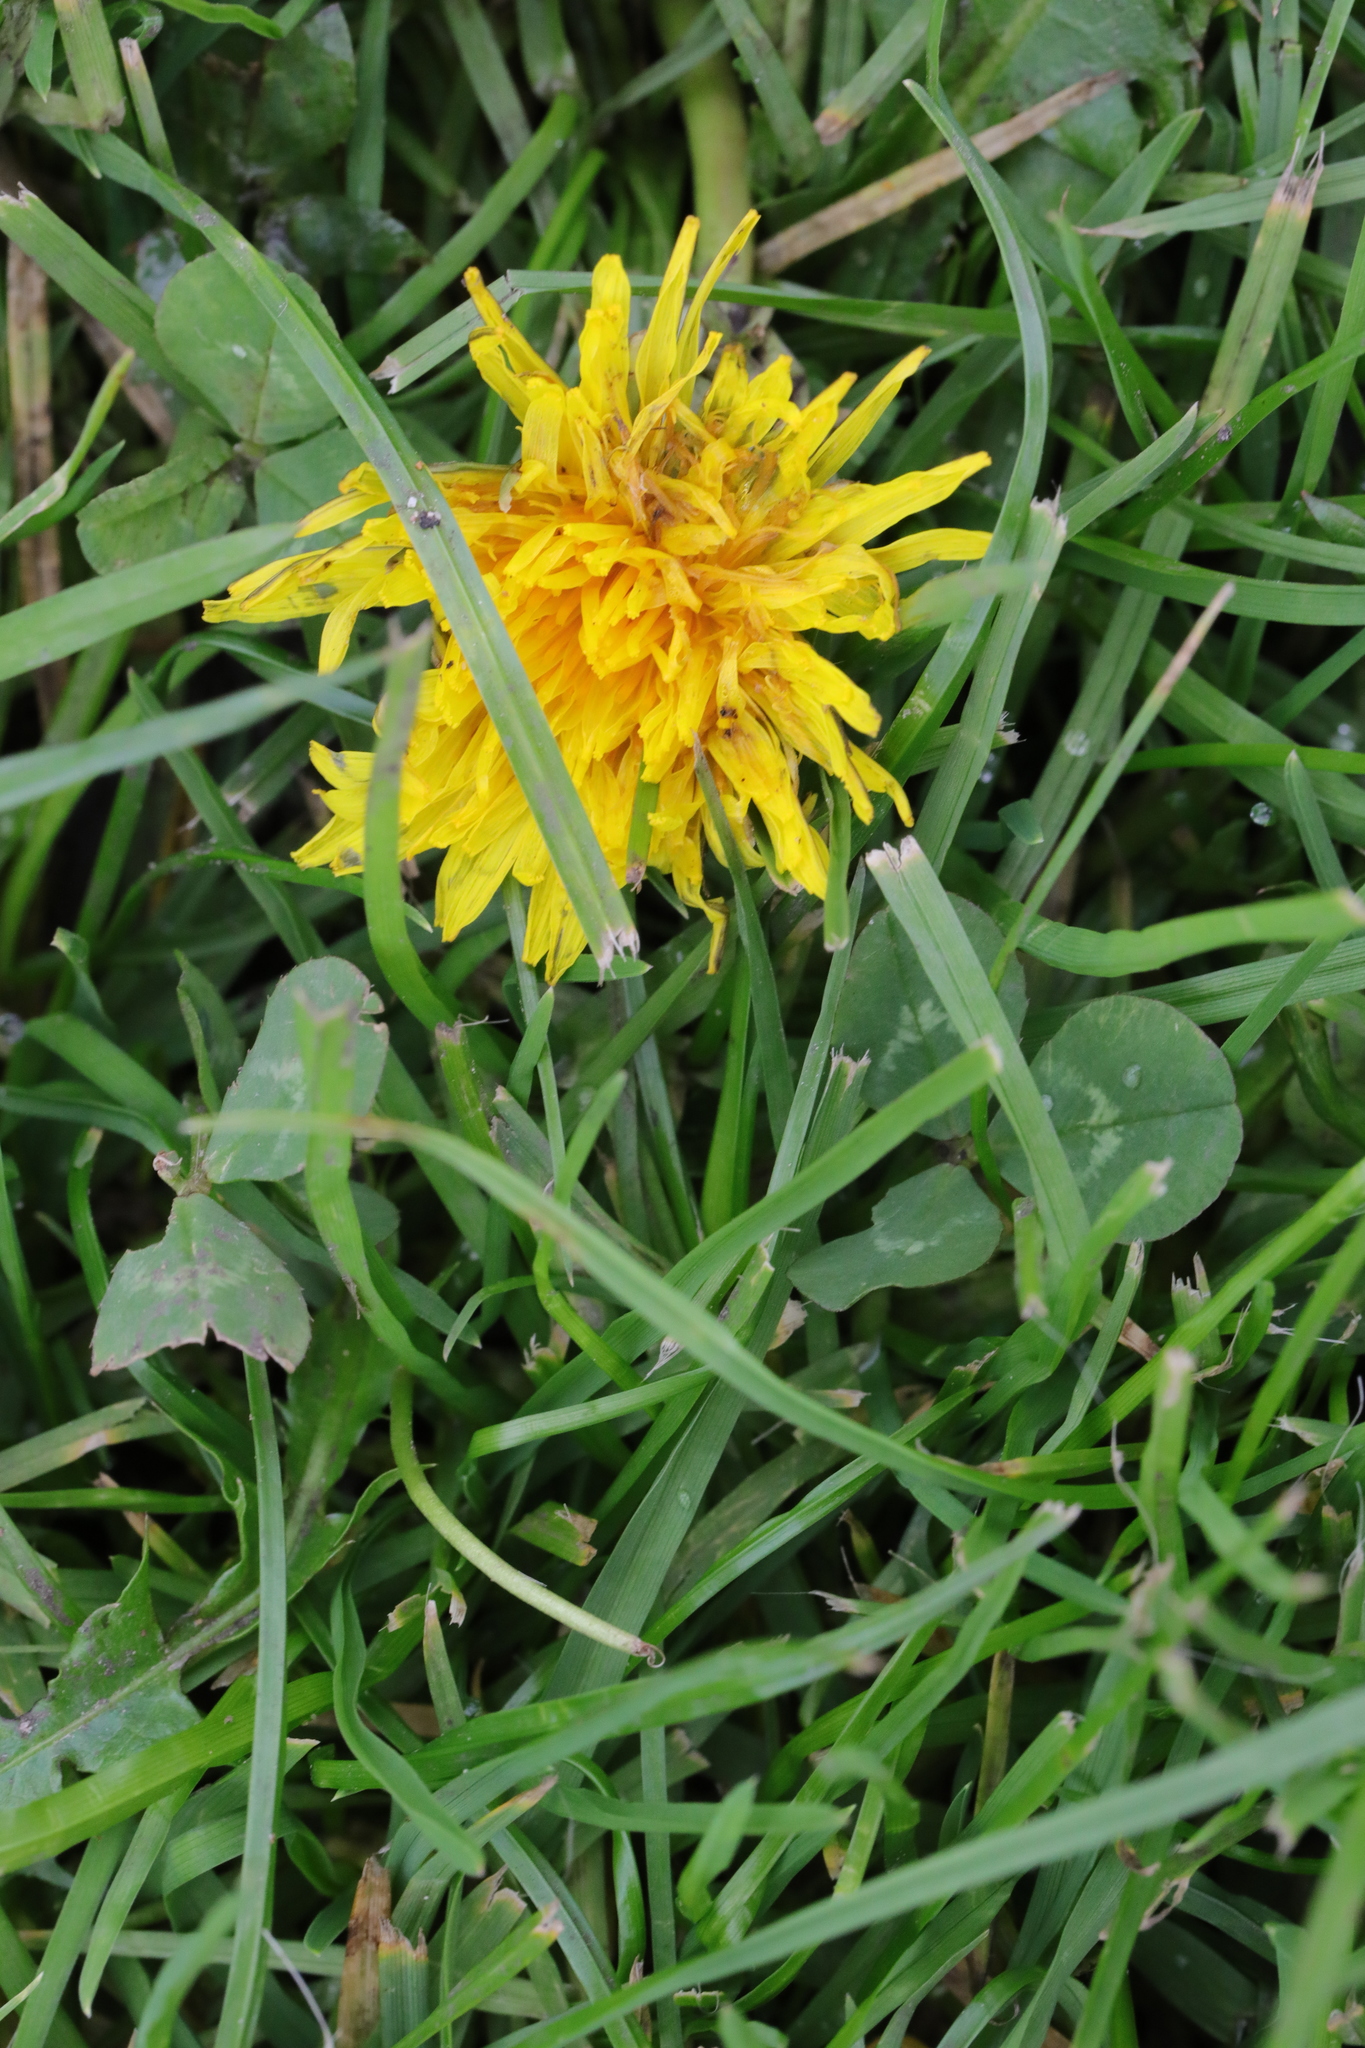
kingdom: Plantae
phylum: Tracheophyta
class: Magnoliopsida
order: Asterales
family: Asteraceae
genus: Taraxacum
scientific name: Taraxacum officinale
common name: Common dandelion
